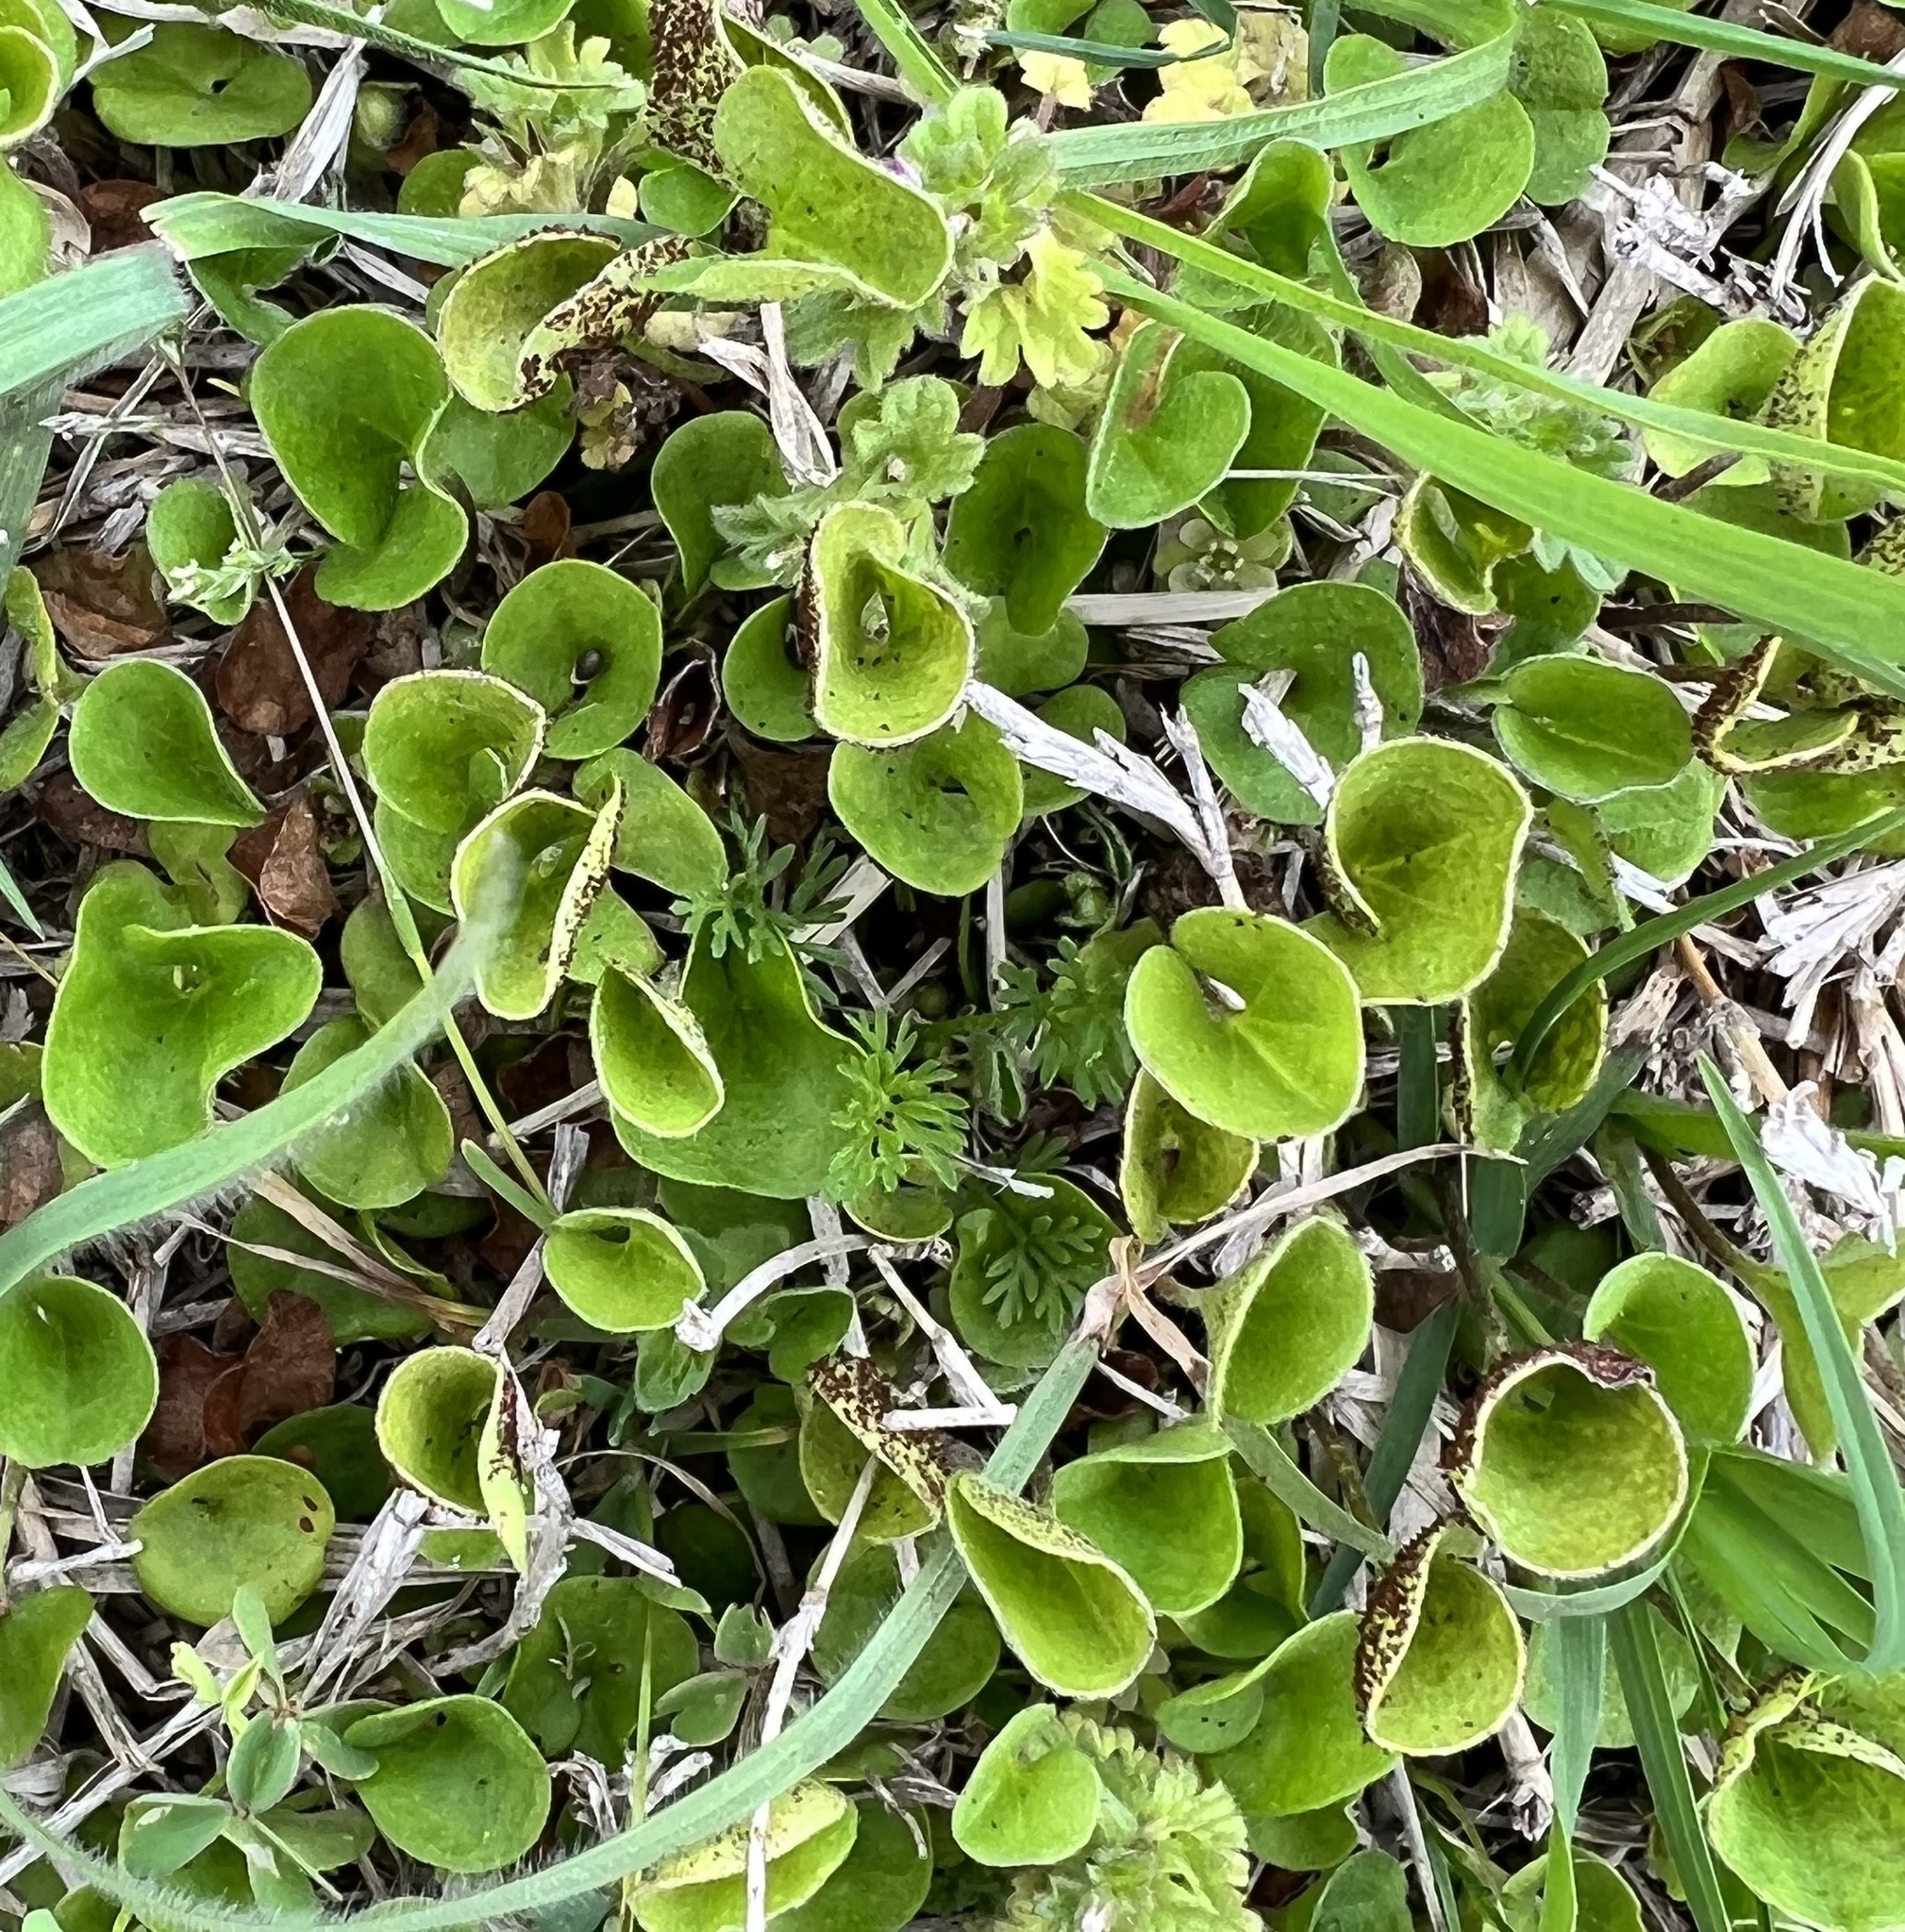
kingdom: Plantae
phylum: Tracheophyta
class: Magnoliopsida
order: Solanales
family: Convolvulaceae
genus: Dichondra
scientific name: Dichondra carolinensis
